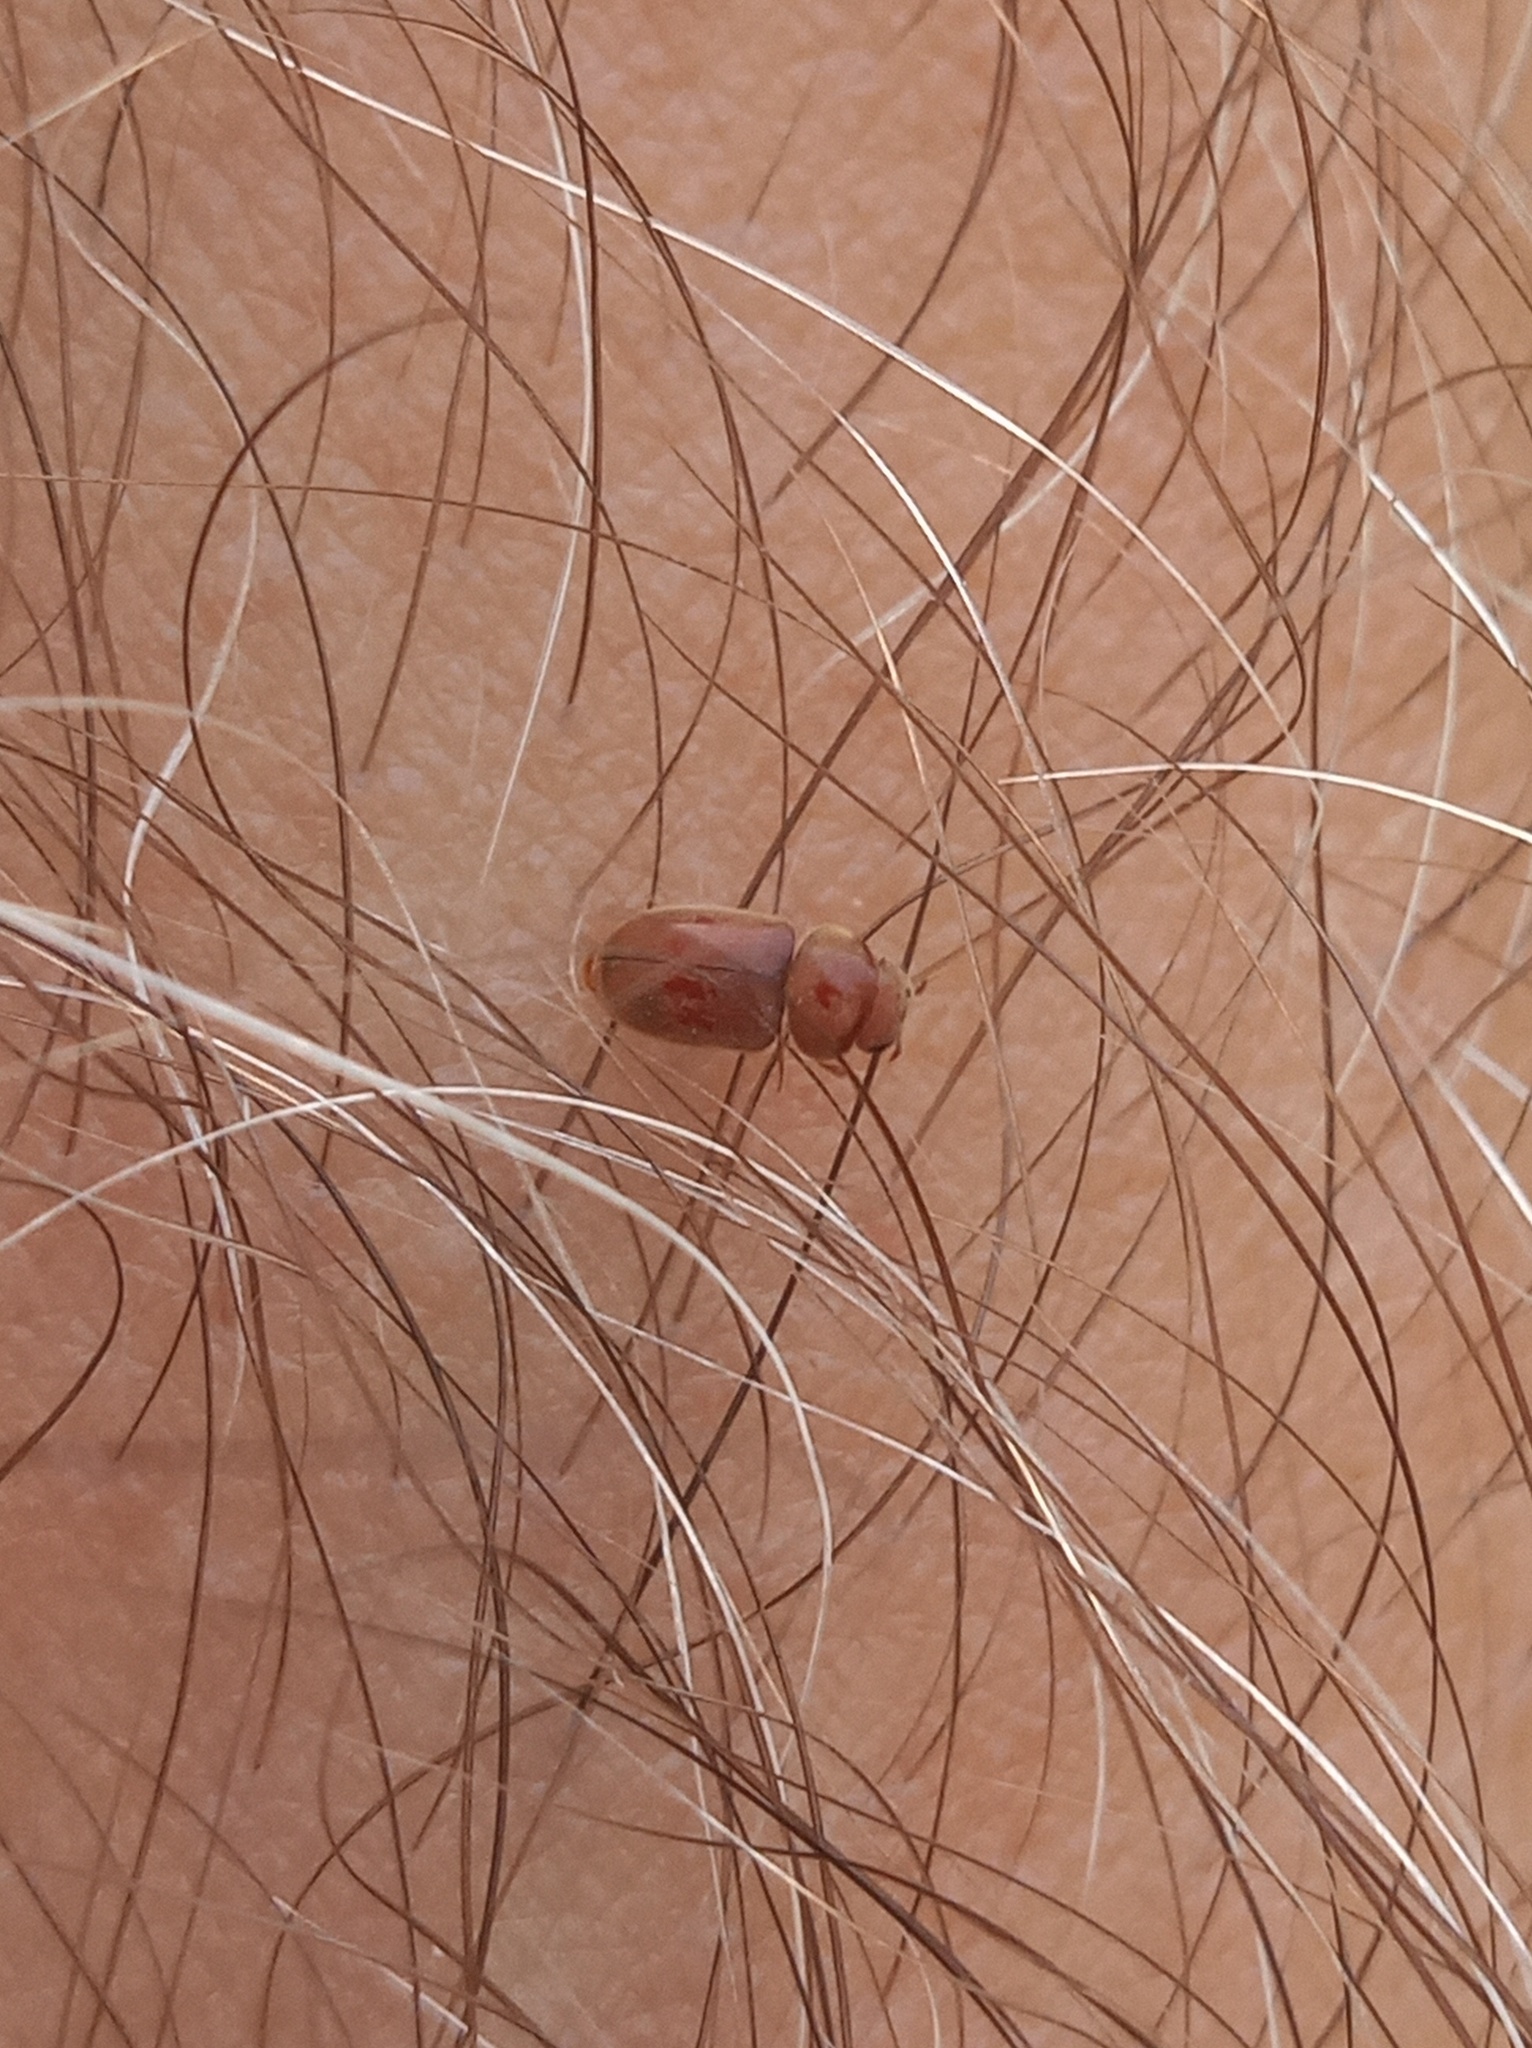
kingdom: Animalia
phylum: Arthropoda
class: Insecta
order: Coleoptera
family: Anobiidae
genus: Lasioderma
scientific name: Lasioderma serricorne
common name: Cigarette beetle
